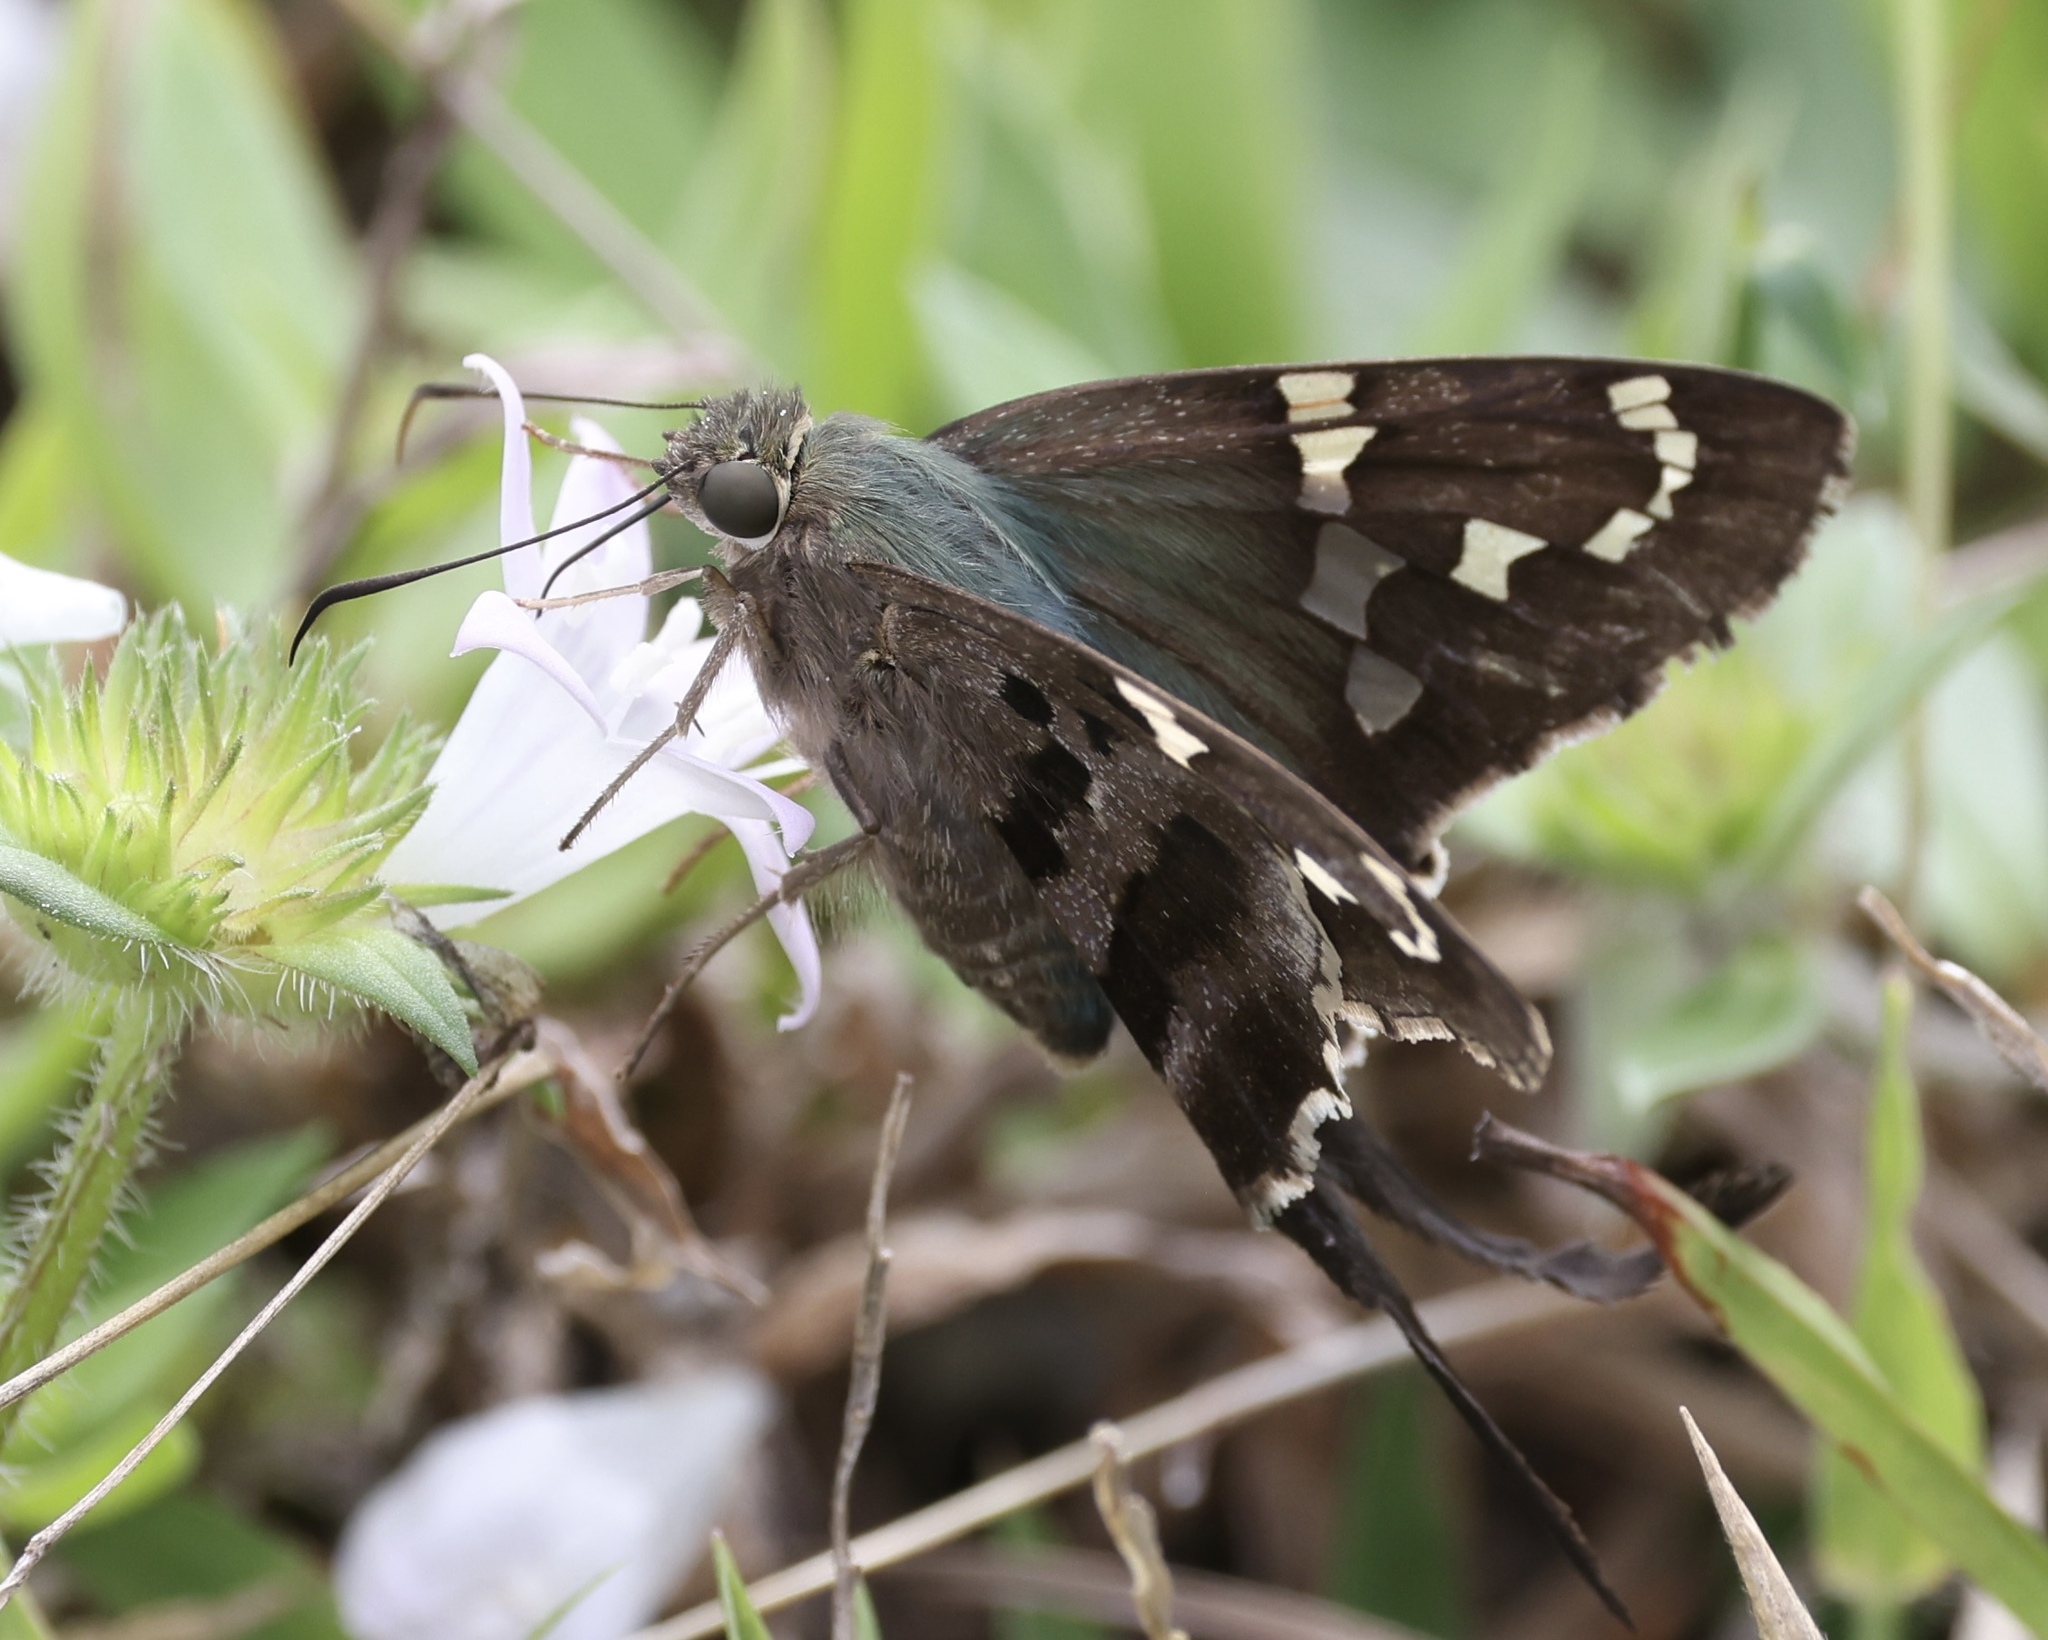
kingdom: Animalia
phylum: Arthropoda
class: Insecta
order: Lepidoptera
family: Hesperiidae
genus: Urbanus
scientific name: Urbanus proteus
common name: Long-tailed skipper
